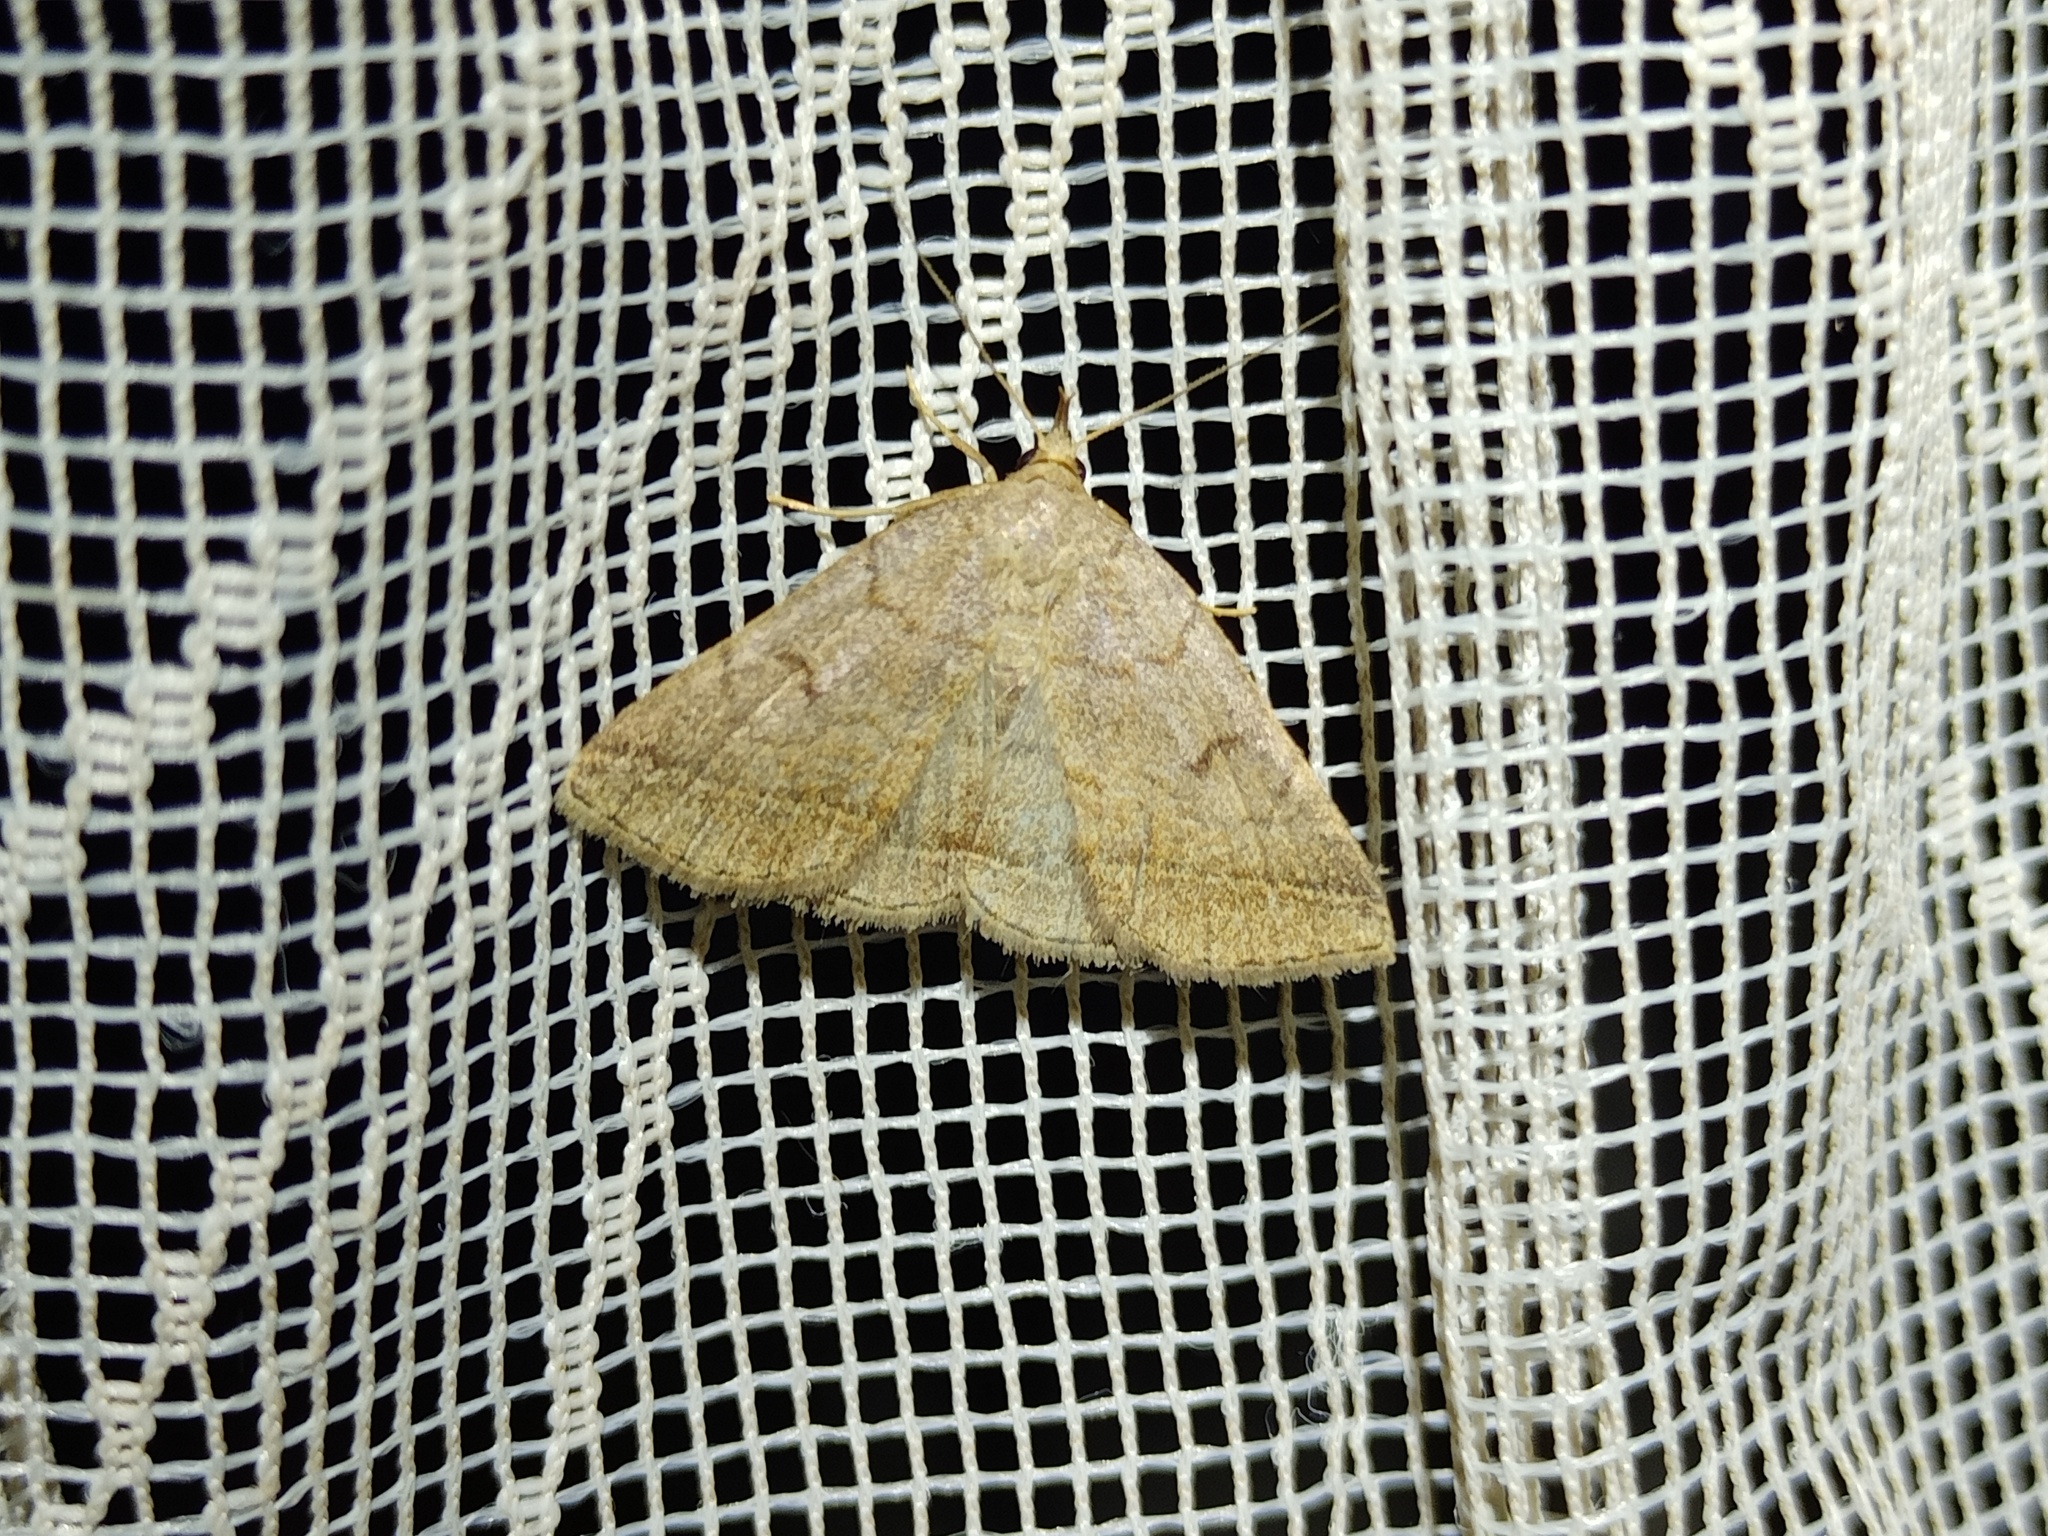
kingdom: Animalia
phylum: Arthropoda
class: Insecta
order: Lepidoptera
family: Erebidae
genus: Zanclognatha
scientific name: Zanclognatha lunalis
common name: Jubilee fan-foot
